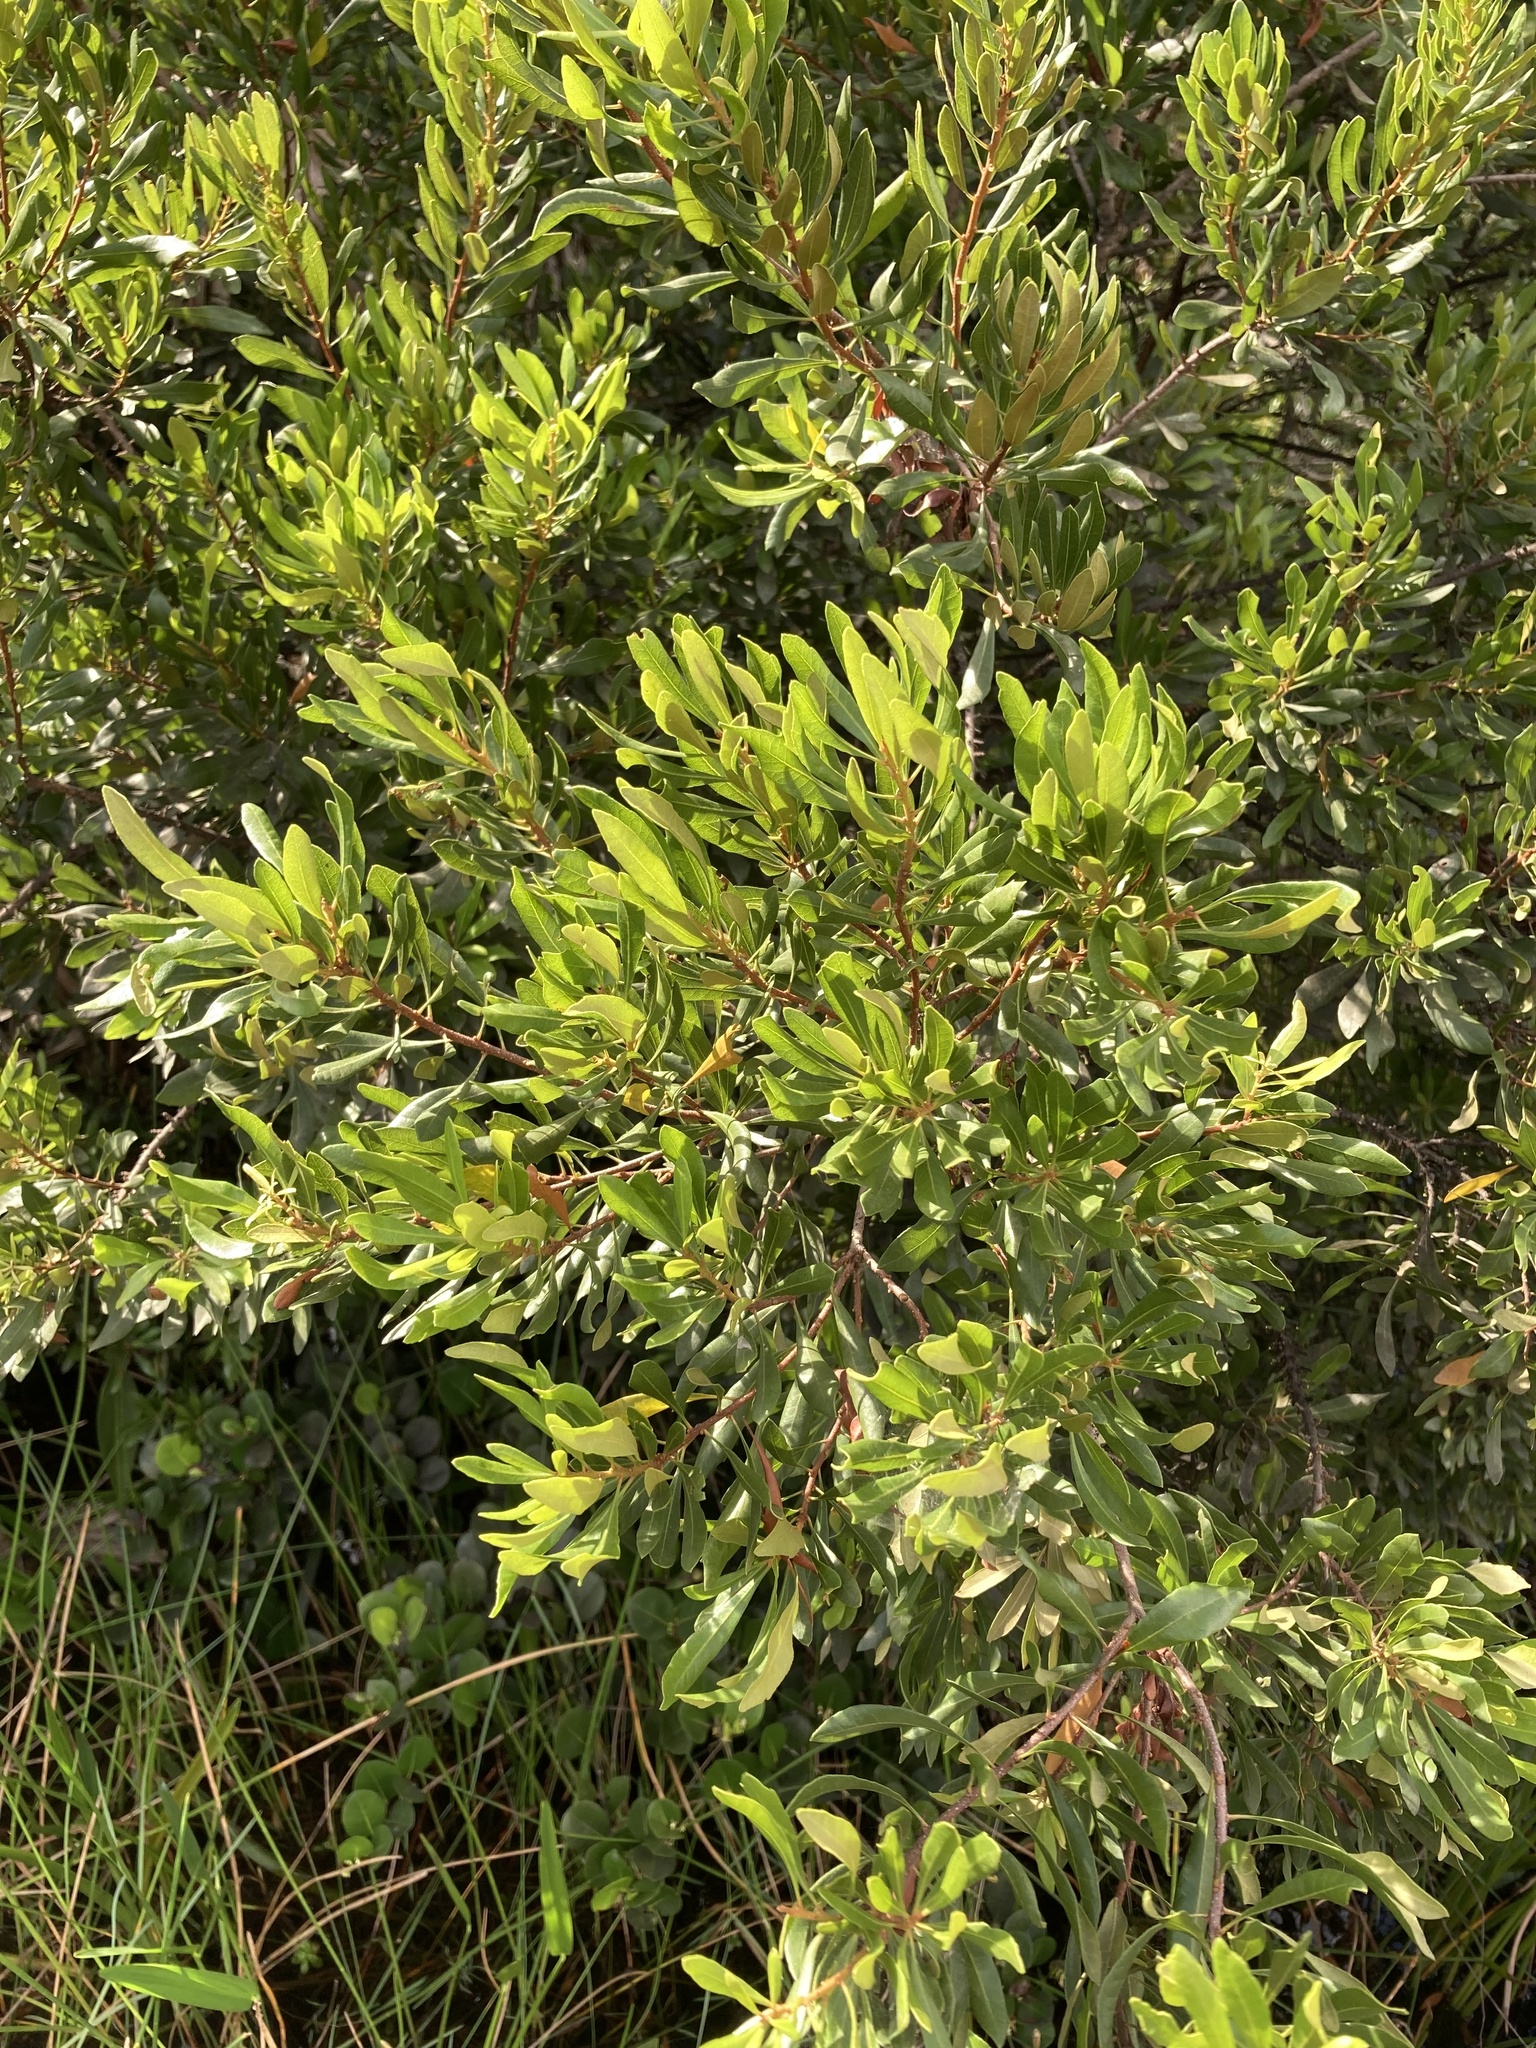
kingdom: Plantae
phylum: Tracheophyta
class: Magnoliopsida
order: Fagales
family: Myricaceae
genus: Morella
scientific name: Morella cerifera
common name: Wax myrtle
